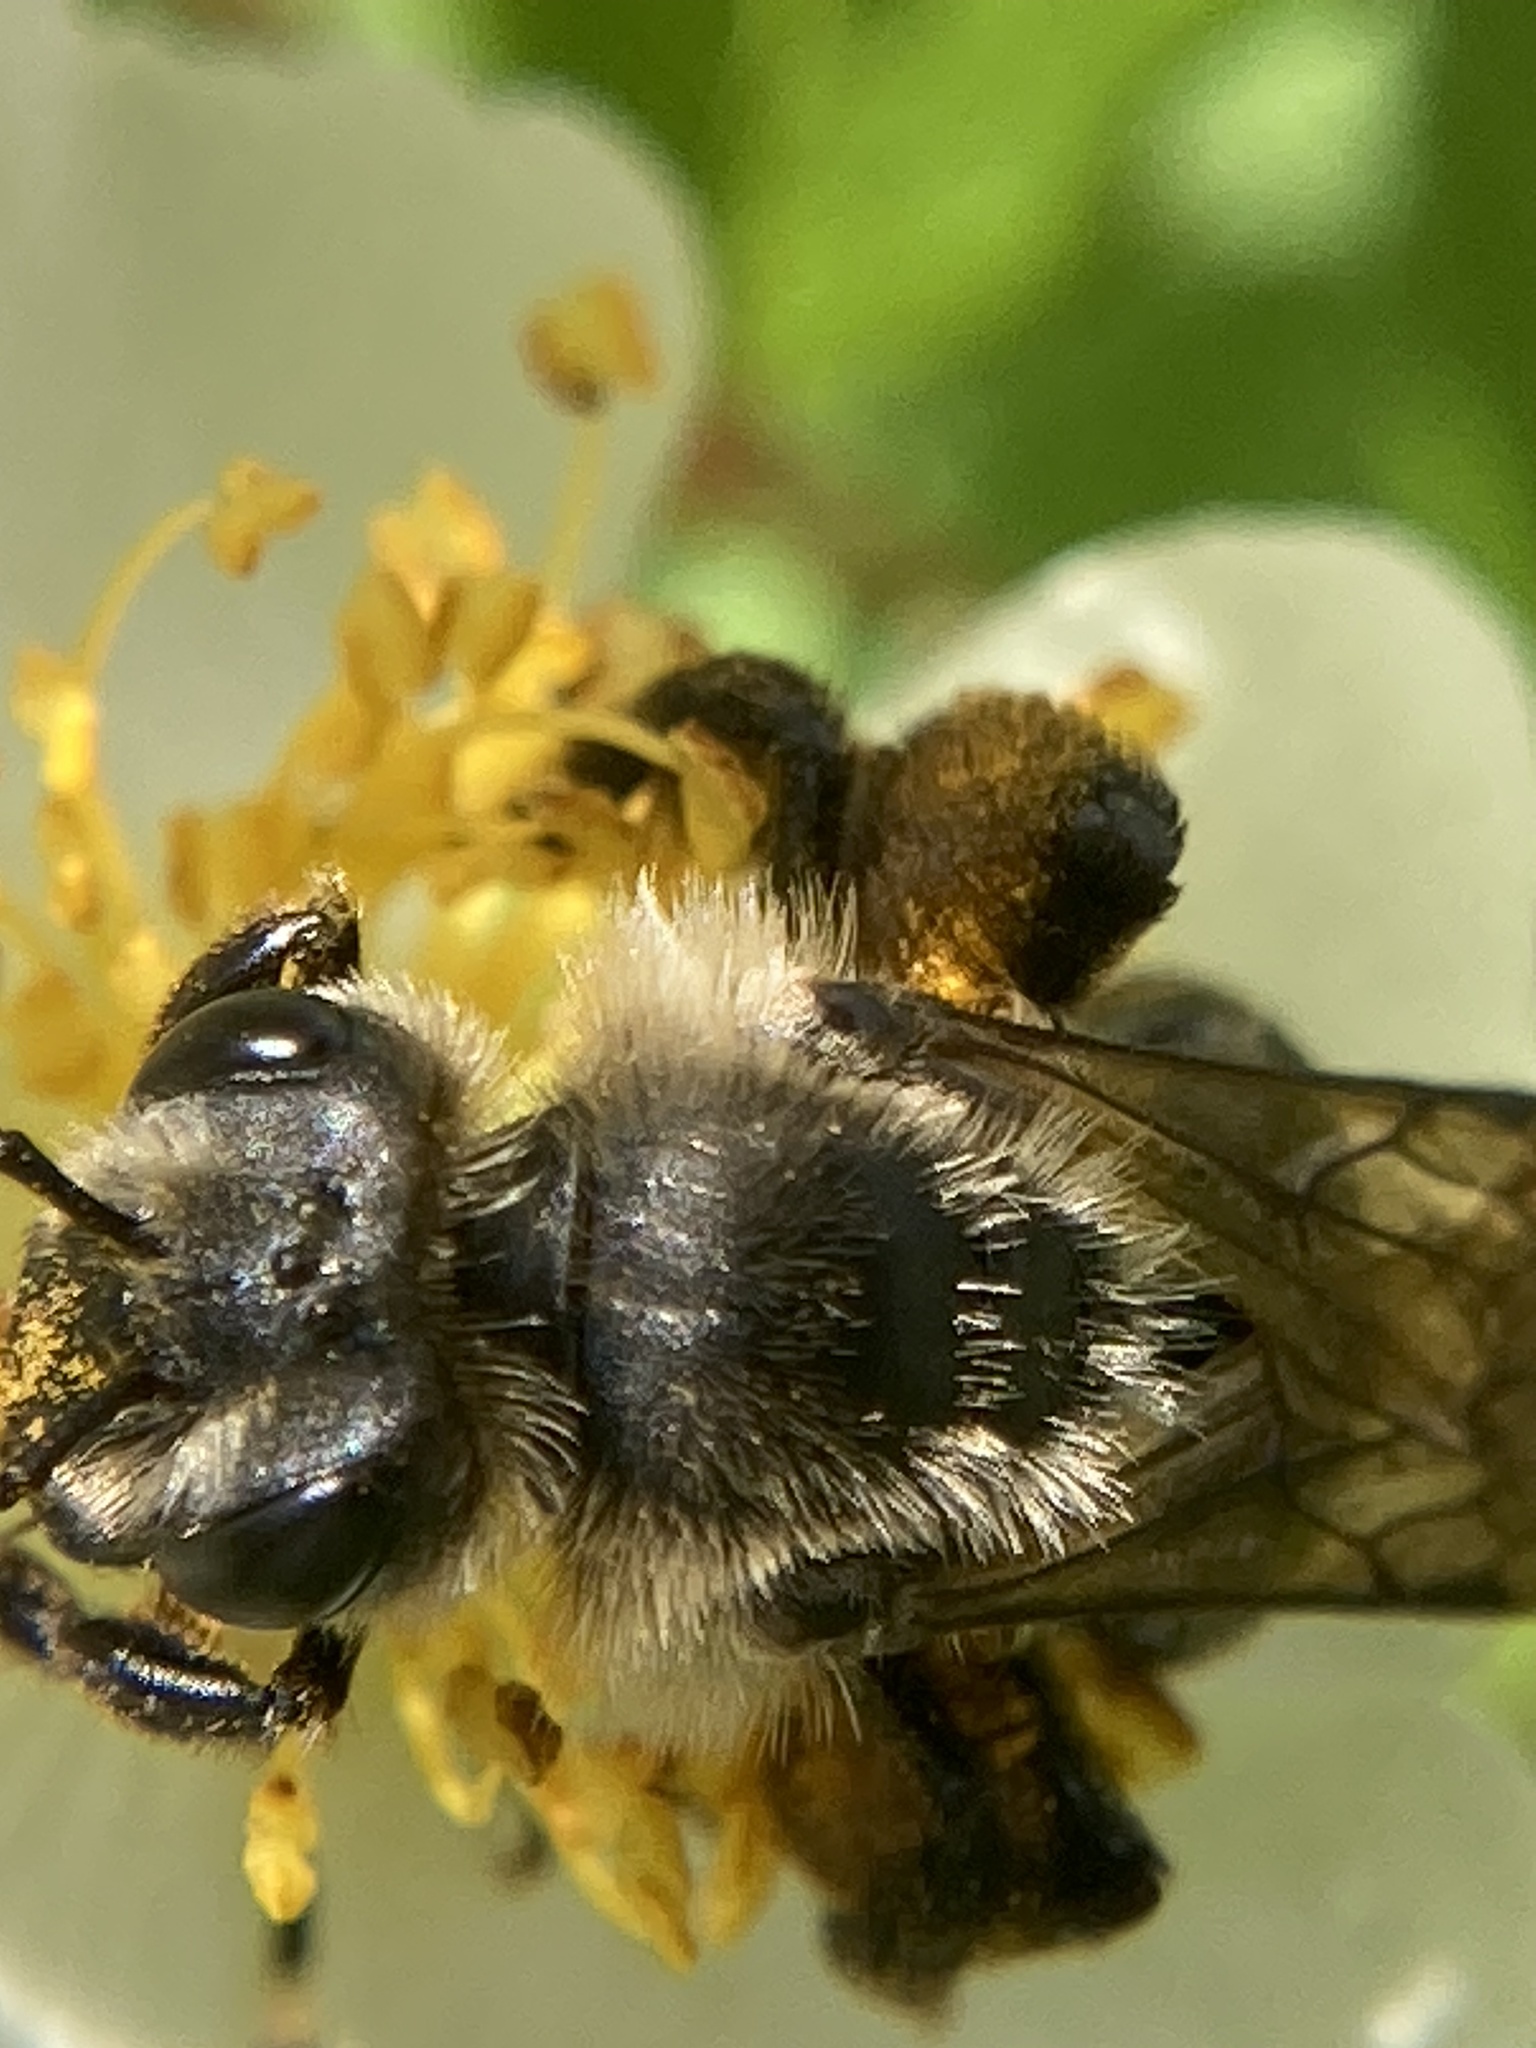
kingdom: Animalia
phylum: Arthropoda
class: Insecta
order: Hymenoptera
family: Andrenidae
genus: Andrena
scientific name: Andrena
